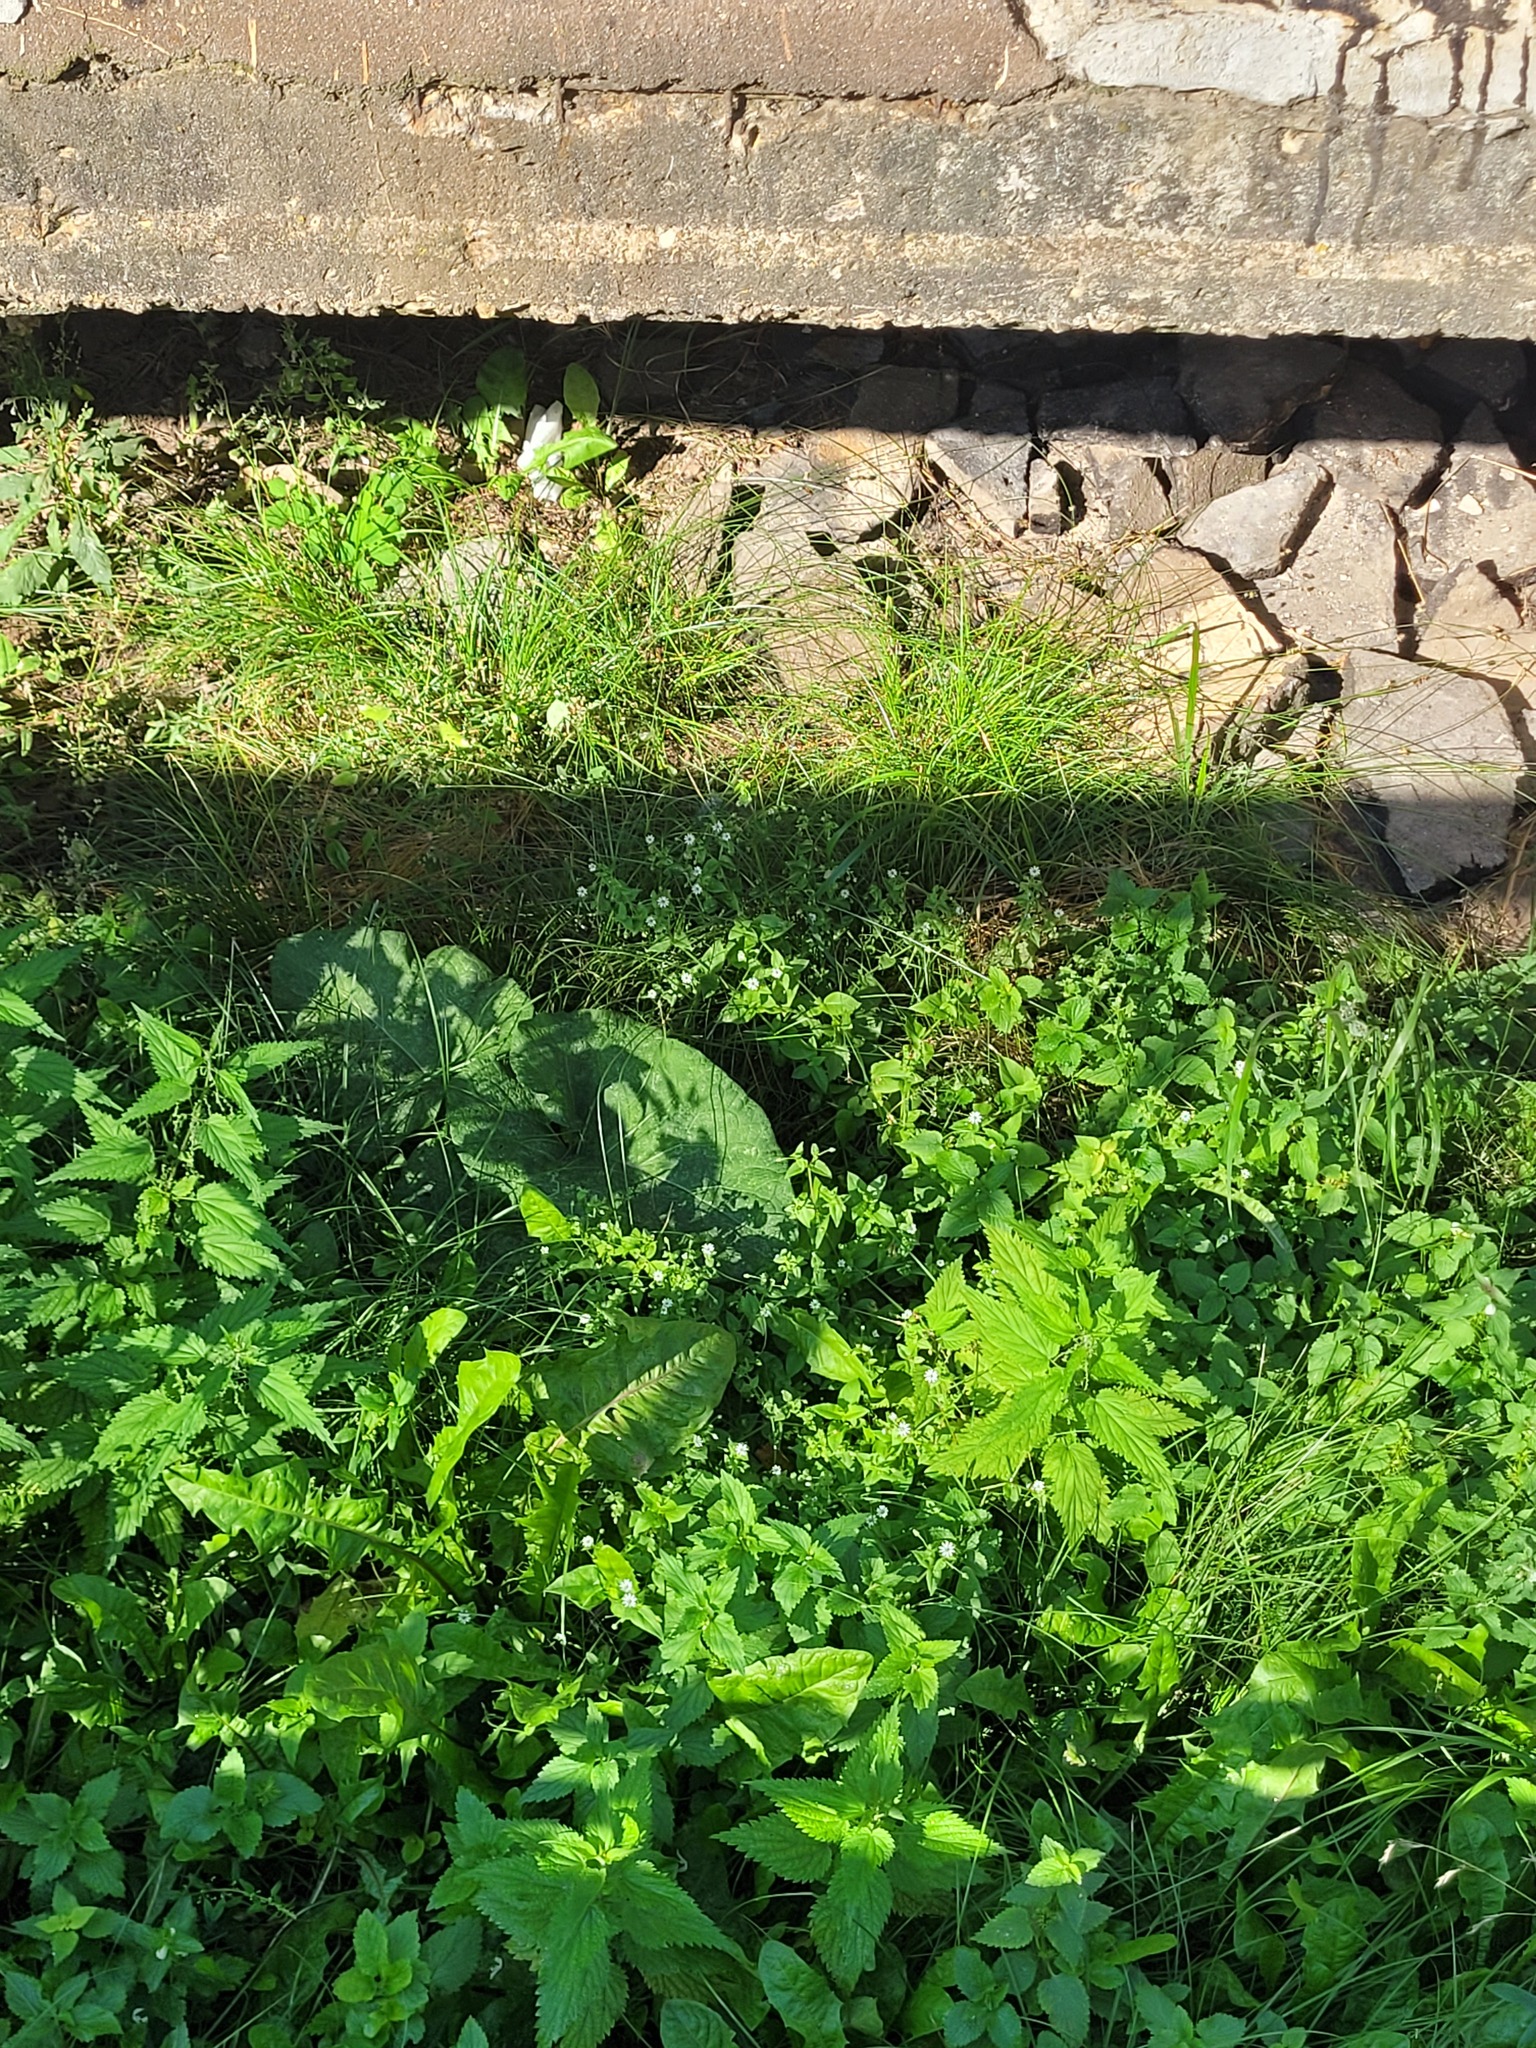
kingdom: Plantae
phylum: Tracheophyta
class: Magnoliopsida
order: Caryophyllales
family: Caryophyllaceae
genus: Stellaria
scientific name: Stellaria aquatica
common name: Water chickweed
